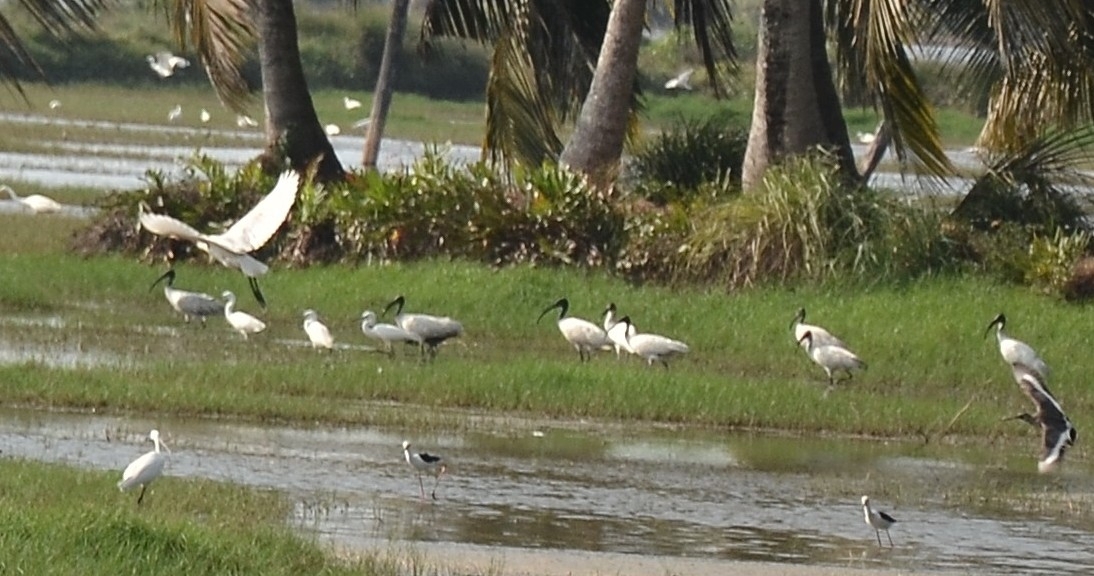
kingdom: Animalia
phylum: Chordata
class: Aves
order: Pelecaniformes
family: Threskiornithidae
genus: Threskiornis
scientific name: Threskiornis melanocephalus
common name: Black-headed ibis
